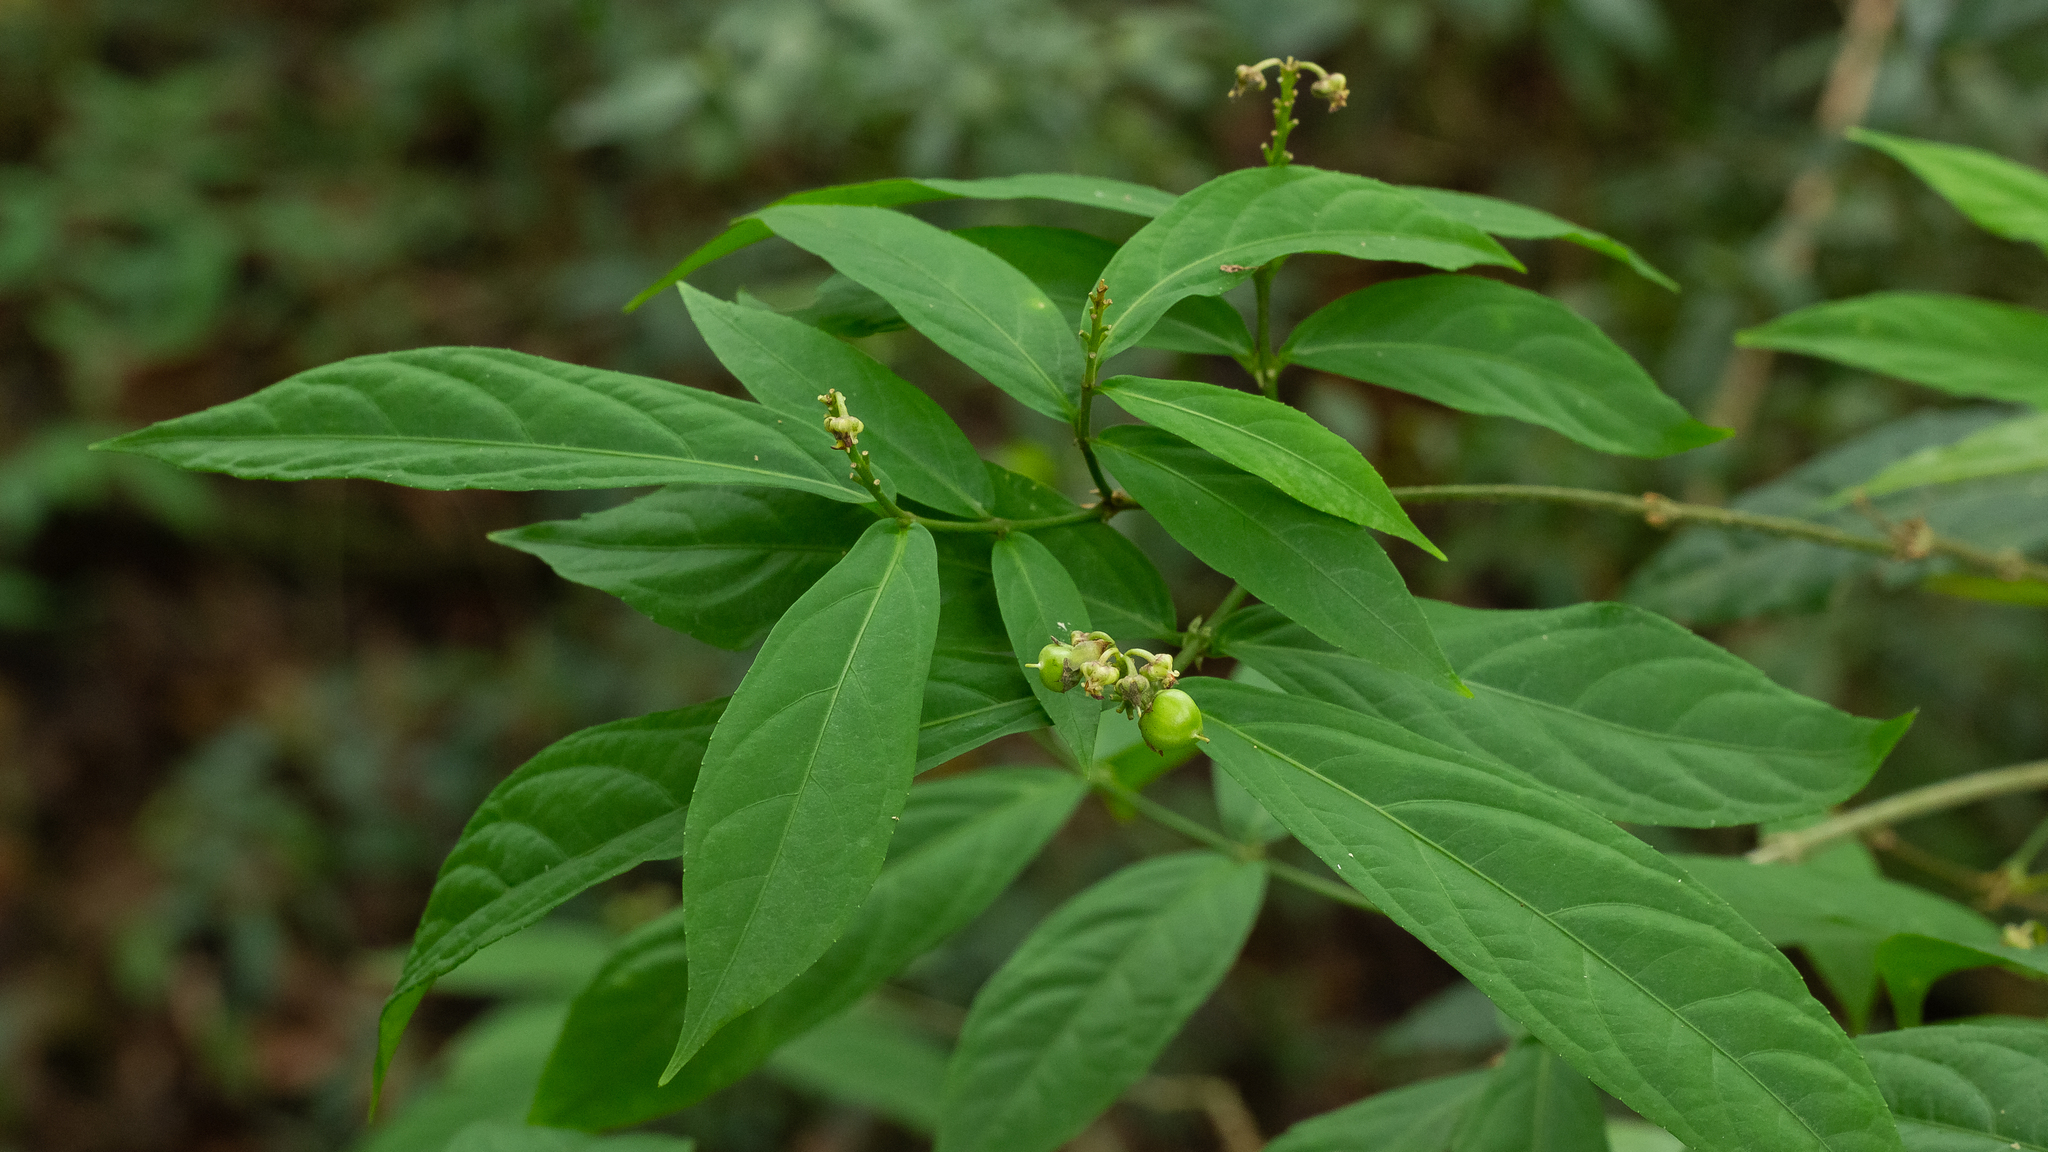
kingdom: Plantae
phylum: Tracheophyta
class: Magnoliopsida
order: Malpighiales
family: Violaceae
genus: Pombalia
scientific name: Pombalia atropurpurea
